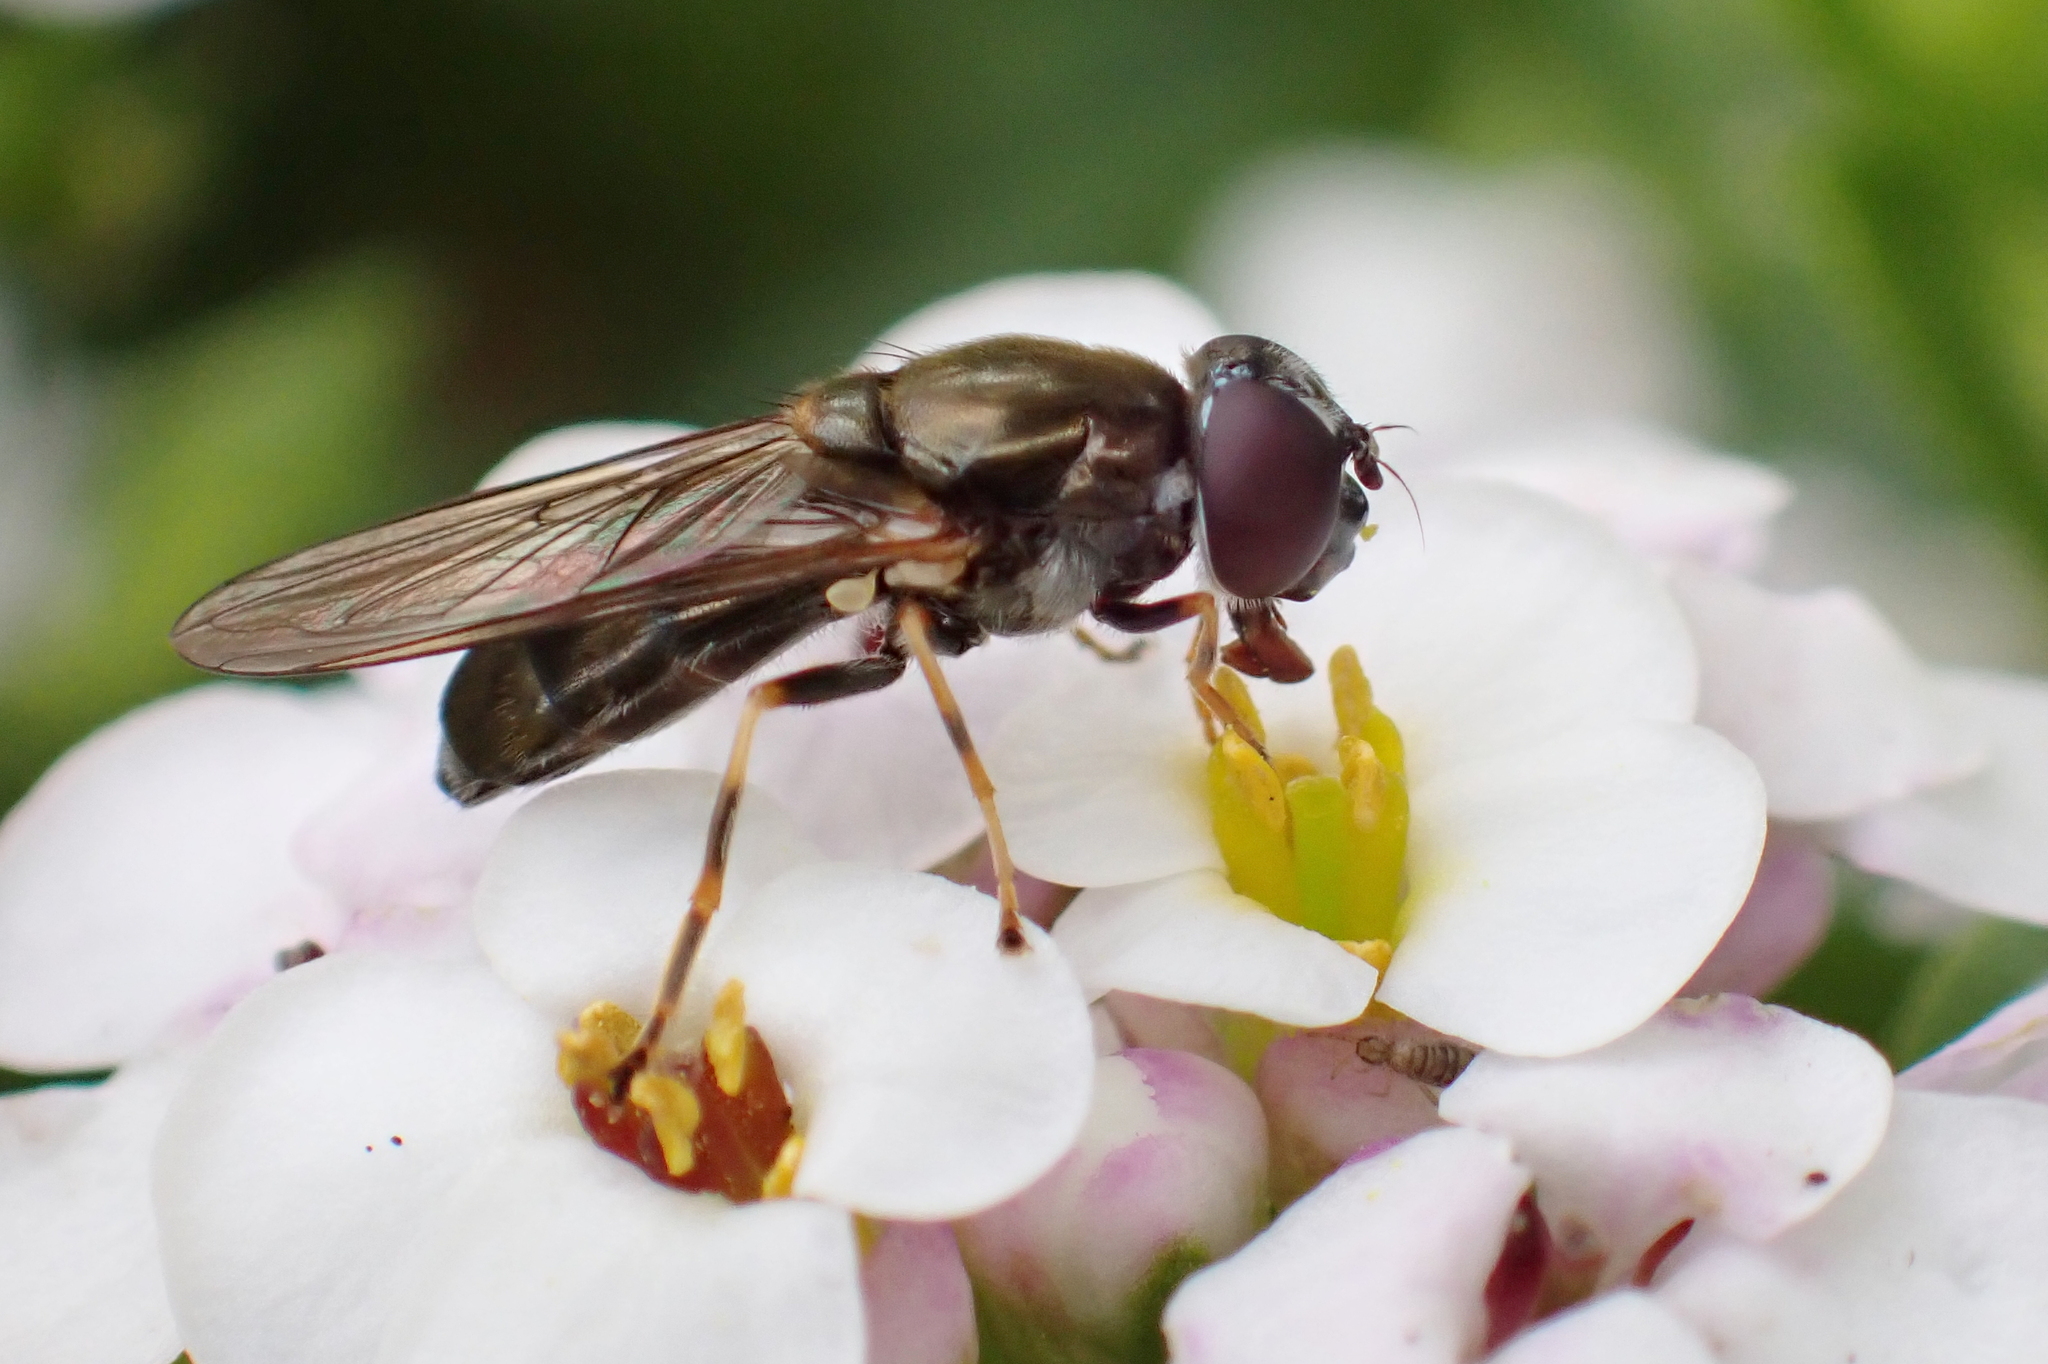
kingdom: Animalia
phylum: Arthropoda
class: Insecta
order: Diptera
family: Syrphidae
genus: Eucartosyrphus
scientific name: Eucartosyrphus
